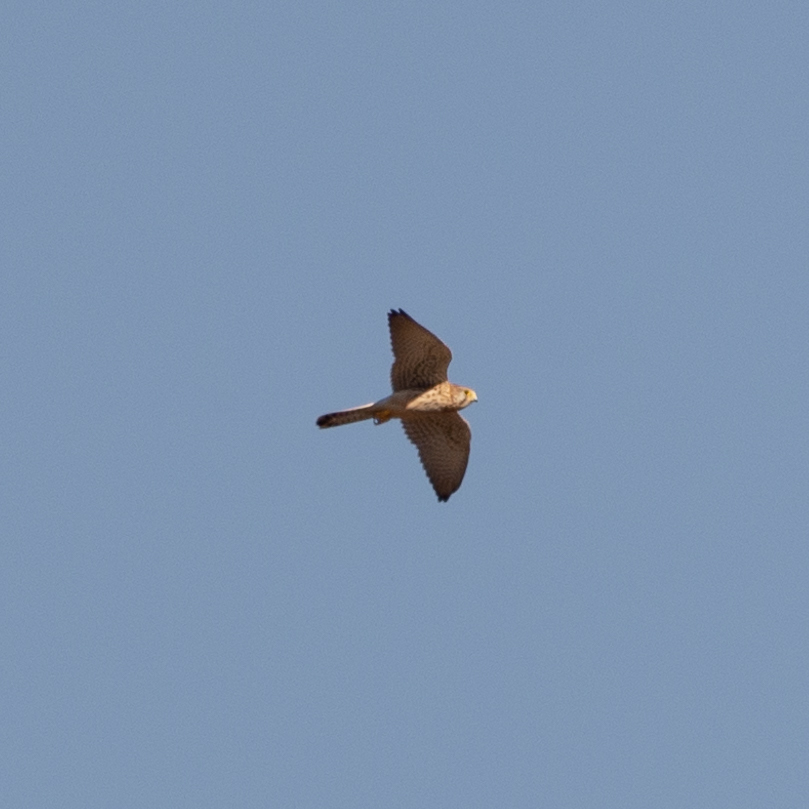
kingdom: Animalia
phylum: Chordata
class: Aves
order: Falconiformes
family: Falconidae
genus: Falco
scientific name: Falco tinnunculus
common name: Common kestrel
